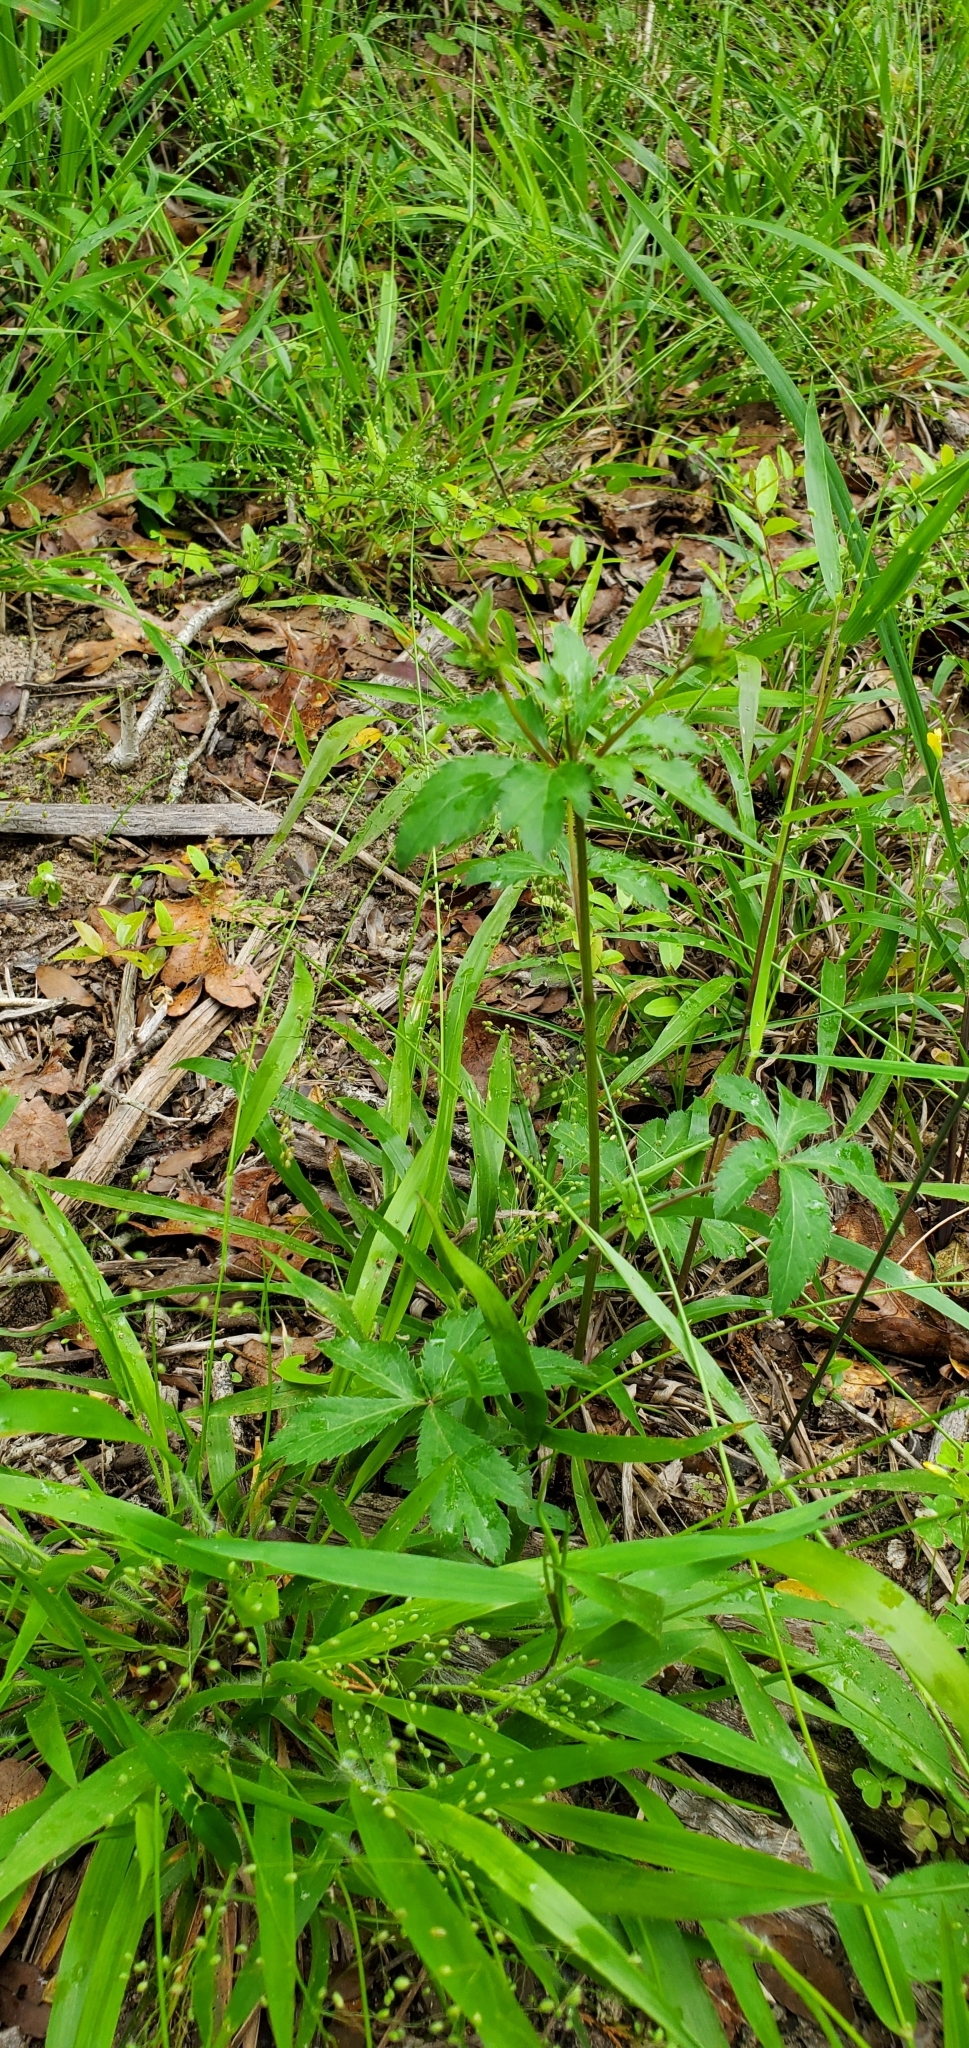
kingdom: Plantae
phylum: Tracheophyta
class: Magnoliopsida
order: Apiales
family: Apiaceae
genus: Sanicula
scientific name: Sanicula canadensis
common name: Canada sanicle
